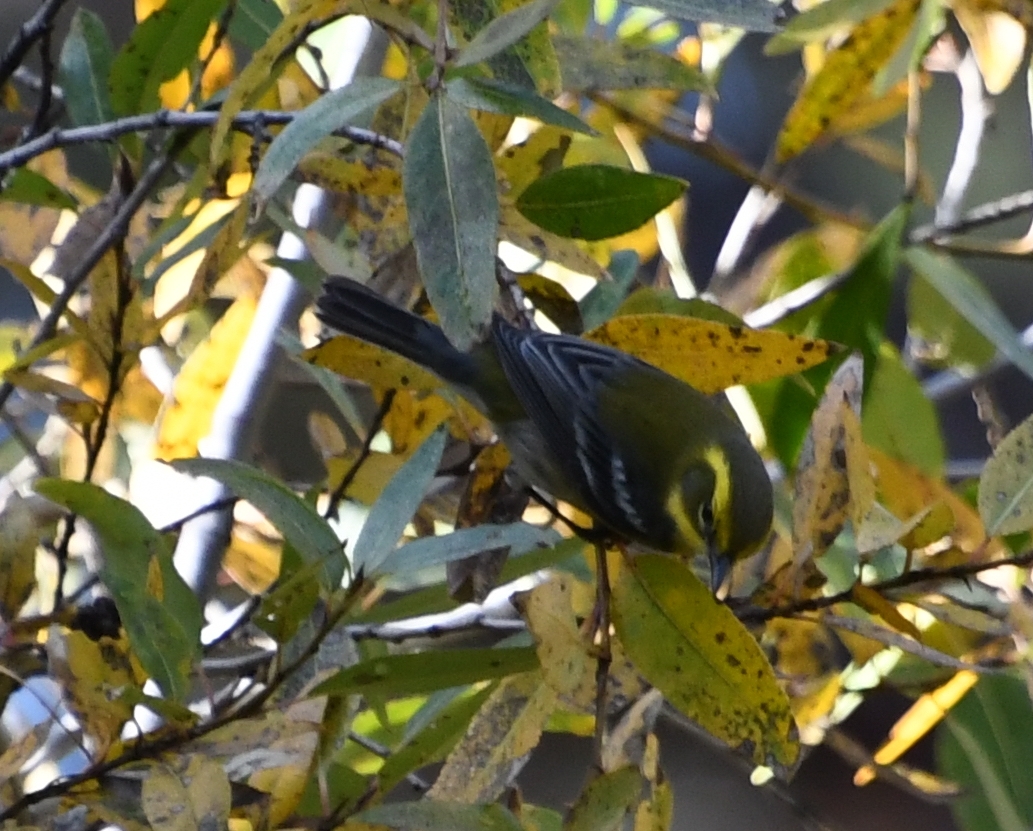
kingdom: Animalia
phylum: Chordata
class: Aves
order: Passeriformes
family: Parulidae
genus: Setophaga
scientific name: Setophaga townsendi
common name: Townsend's warbler
